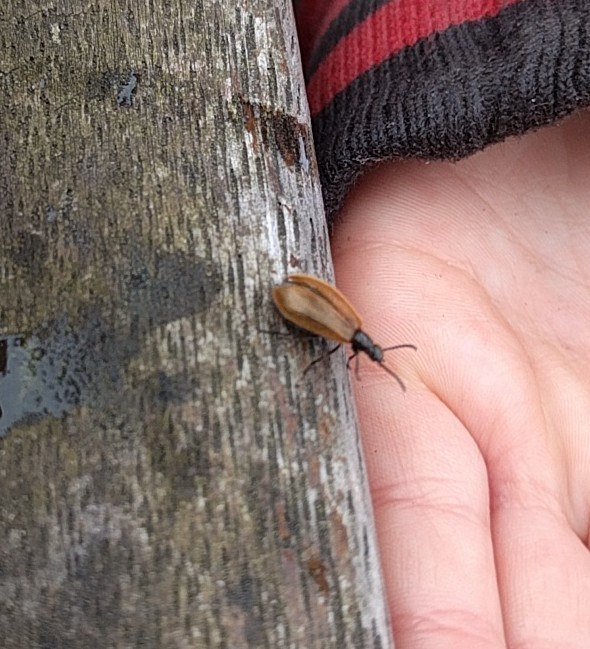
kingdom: Animalia
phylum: Arthropoda
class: Insecta
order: Coleoptera
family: Tenebrionidae
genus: Lagria
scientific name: Lagria hirta
